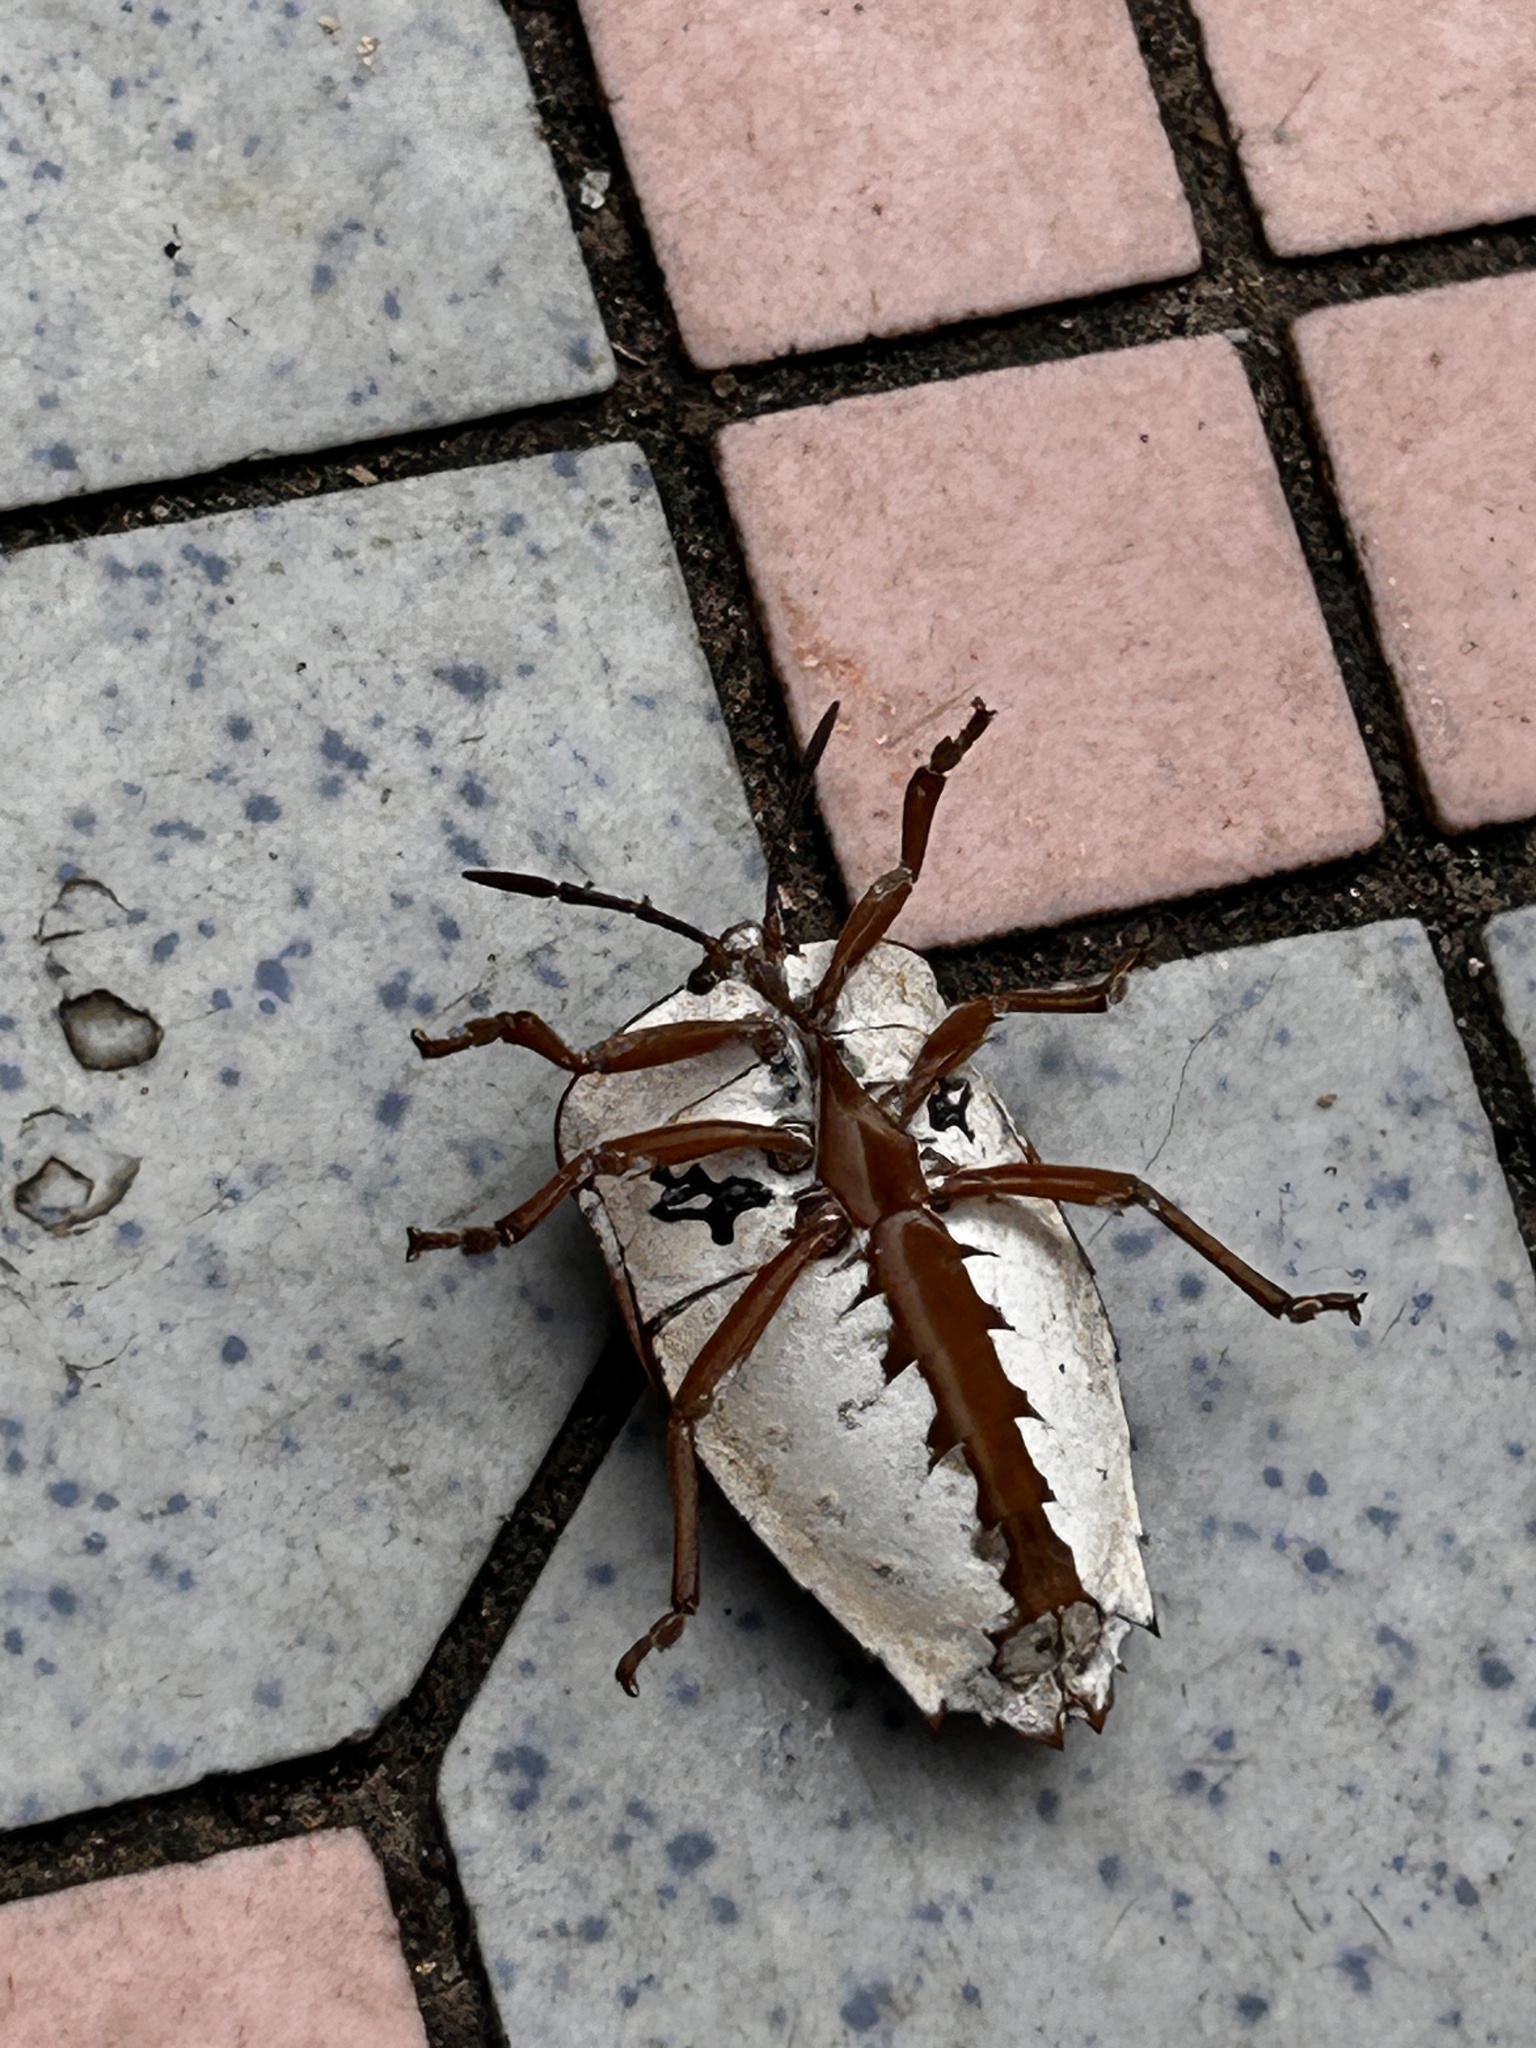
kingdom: Animalia
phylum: Arthropoda
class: Insecta
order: Hemiptera
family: Tessaratomidae
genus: Tessaratoma
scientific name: Tessaratoma papillosa
